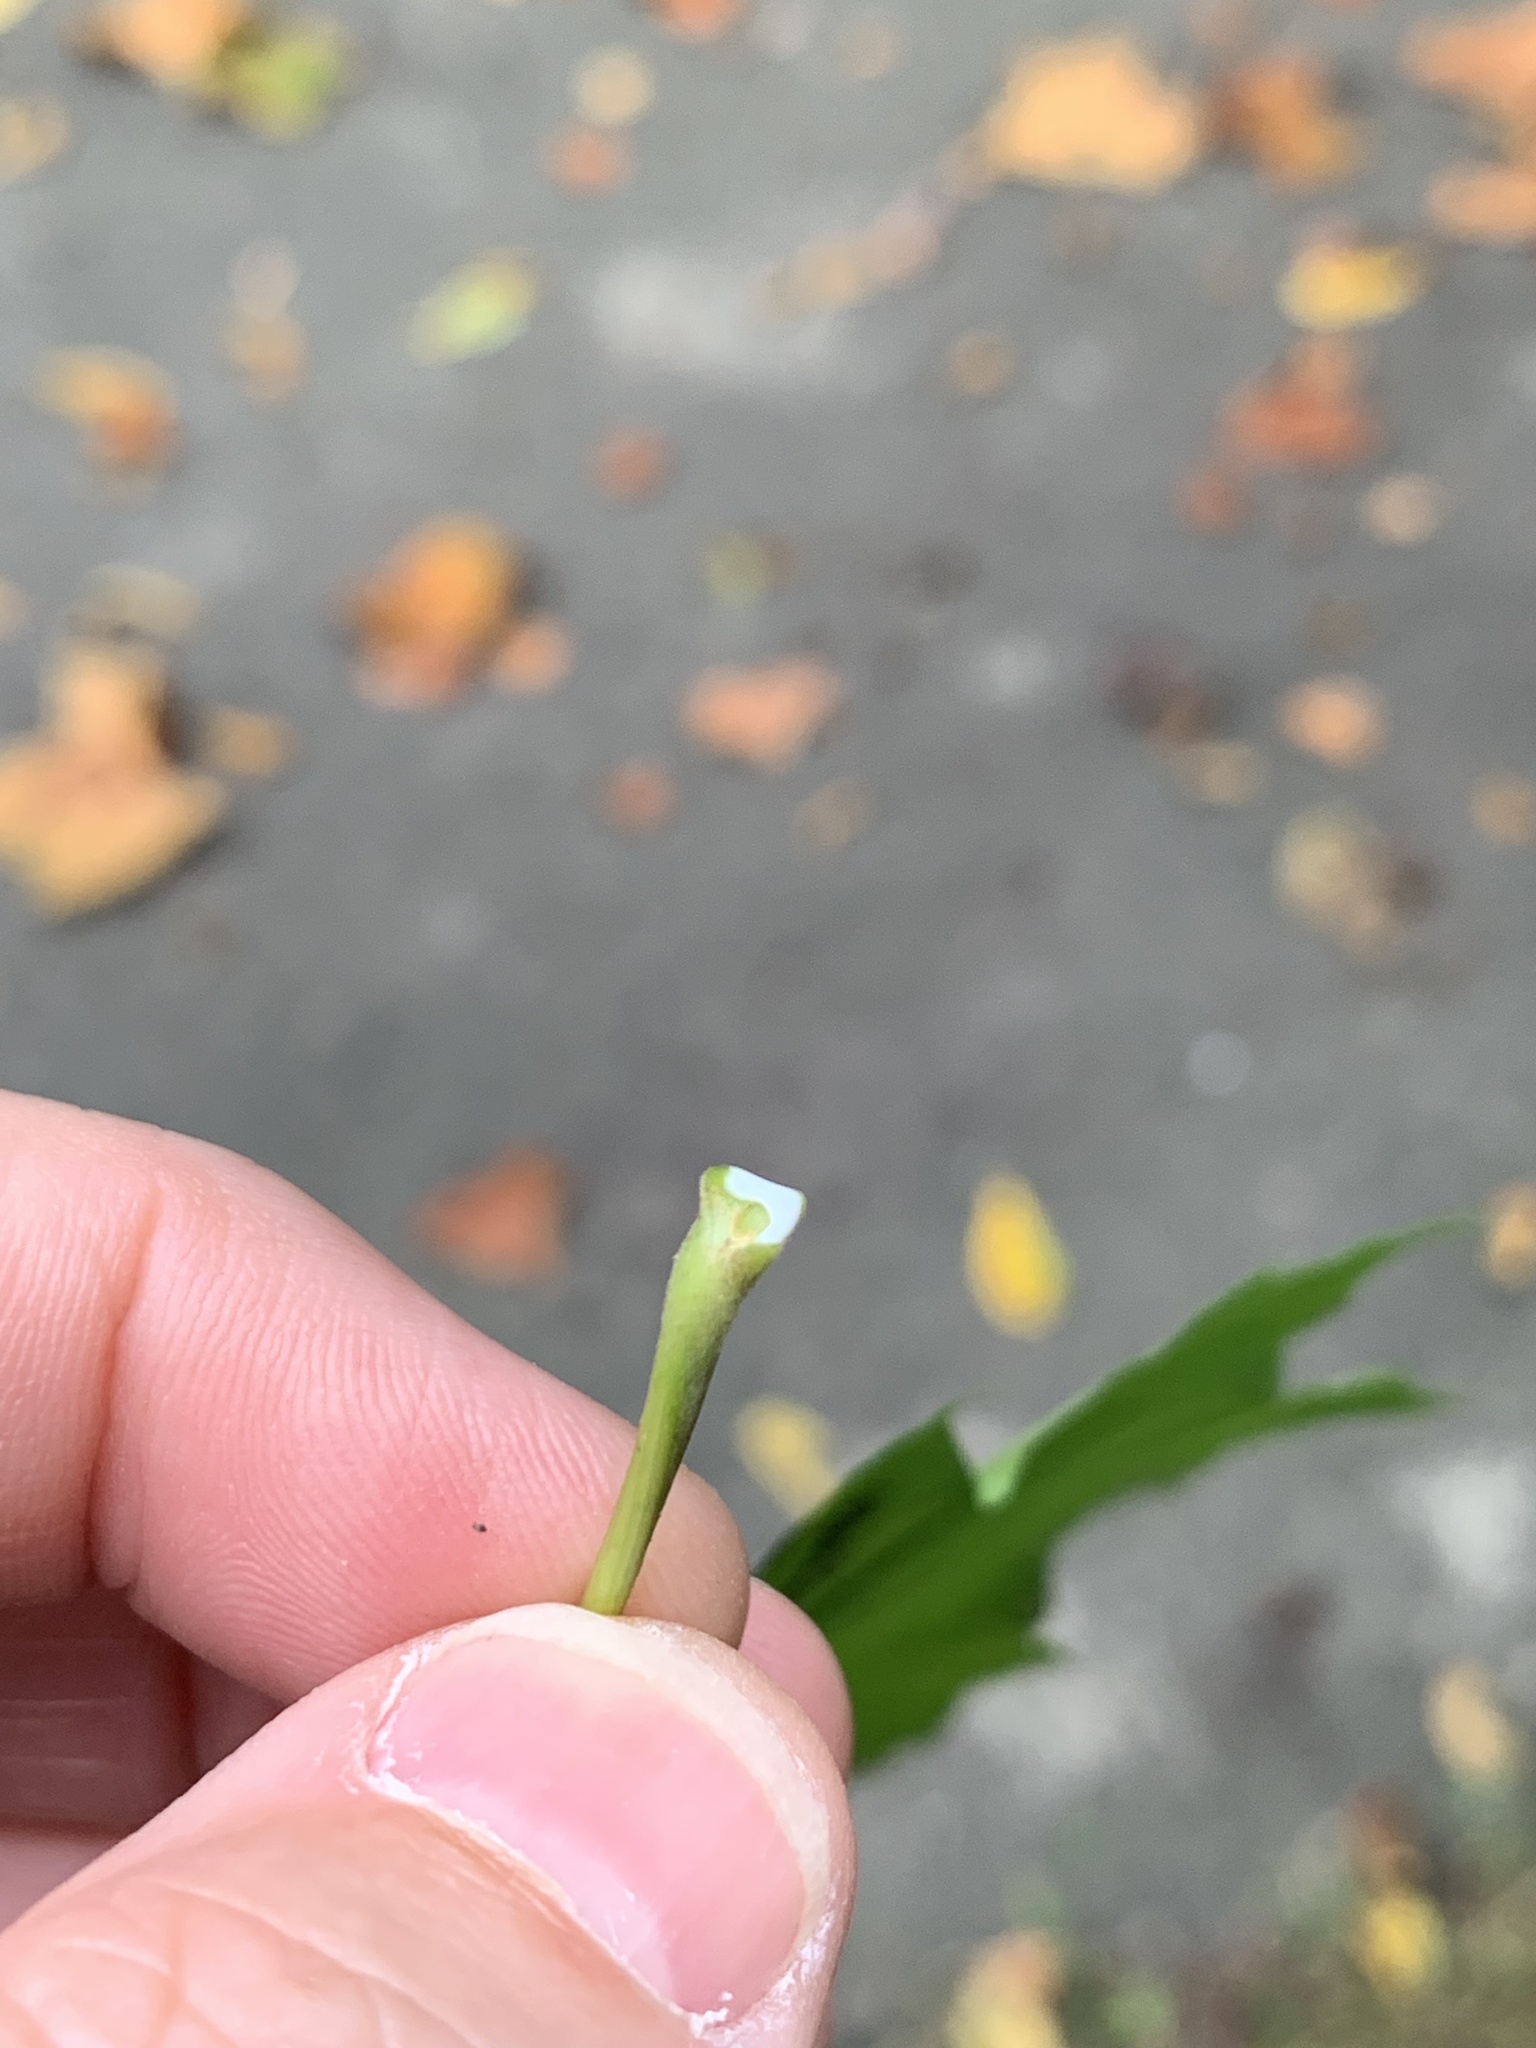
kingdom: Plantae
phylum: Tracheophyta
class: Magnoliopsida
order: Sapindales
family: Sapindaceae
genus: Acer
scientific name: Acer platanoides
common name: Norway maple
